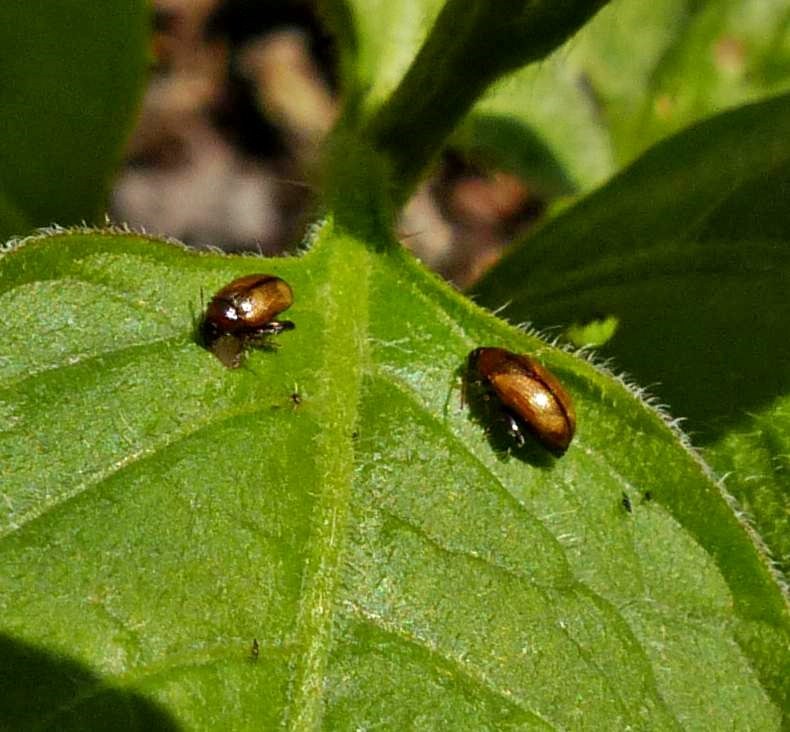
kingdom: Animalia
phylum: Arthropoda
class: Insecta
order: Coleoptera
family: Chrysomelidae
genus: Psylliodes
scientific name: Psylliodes affinis
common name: Potato flea beetle
